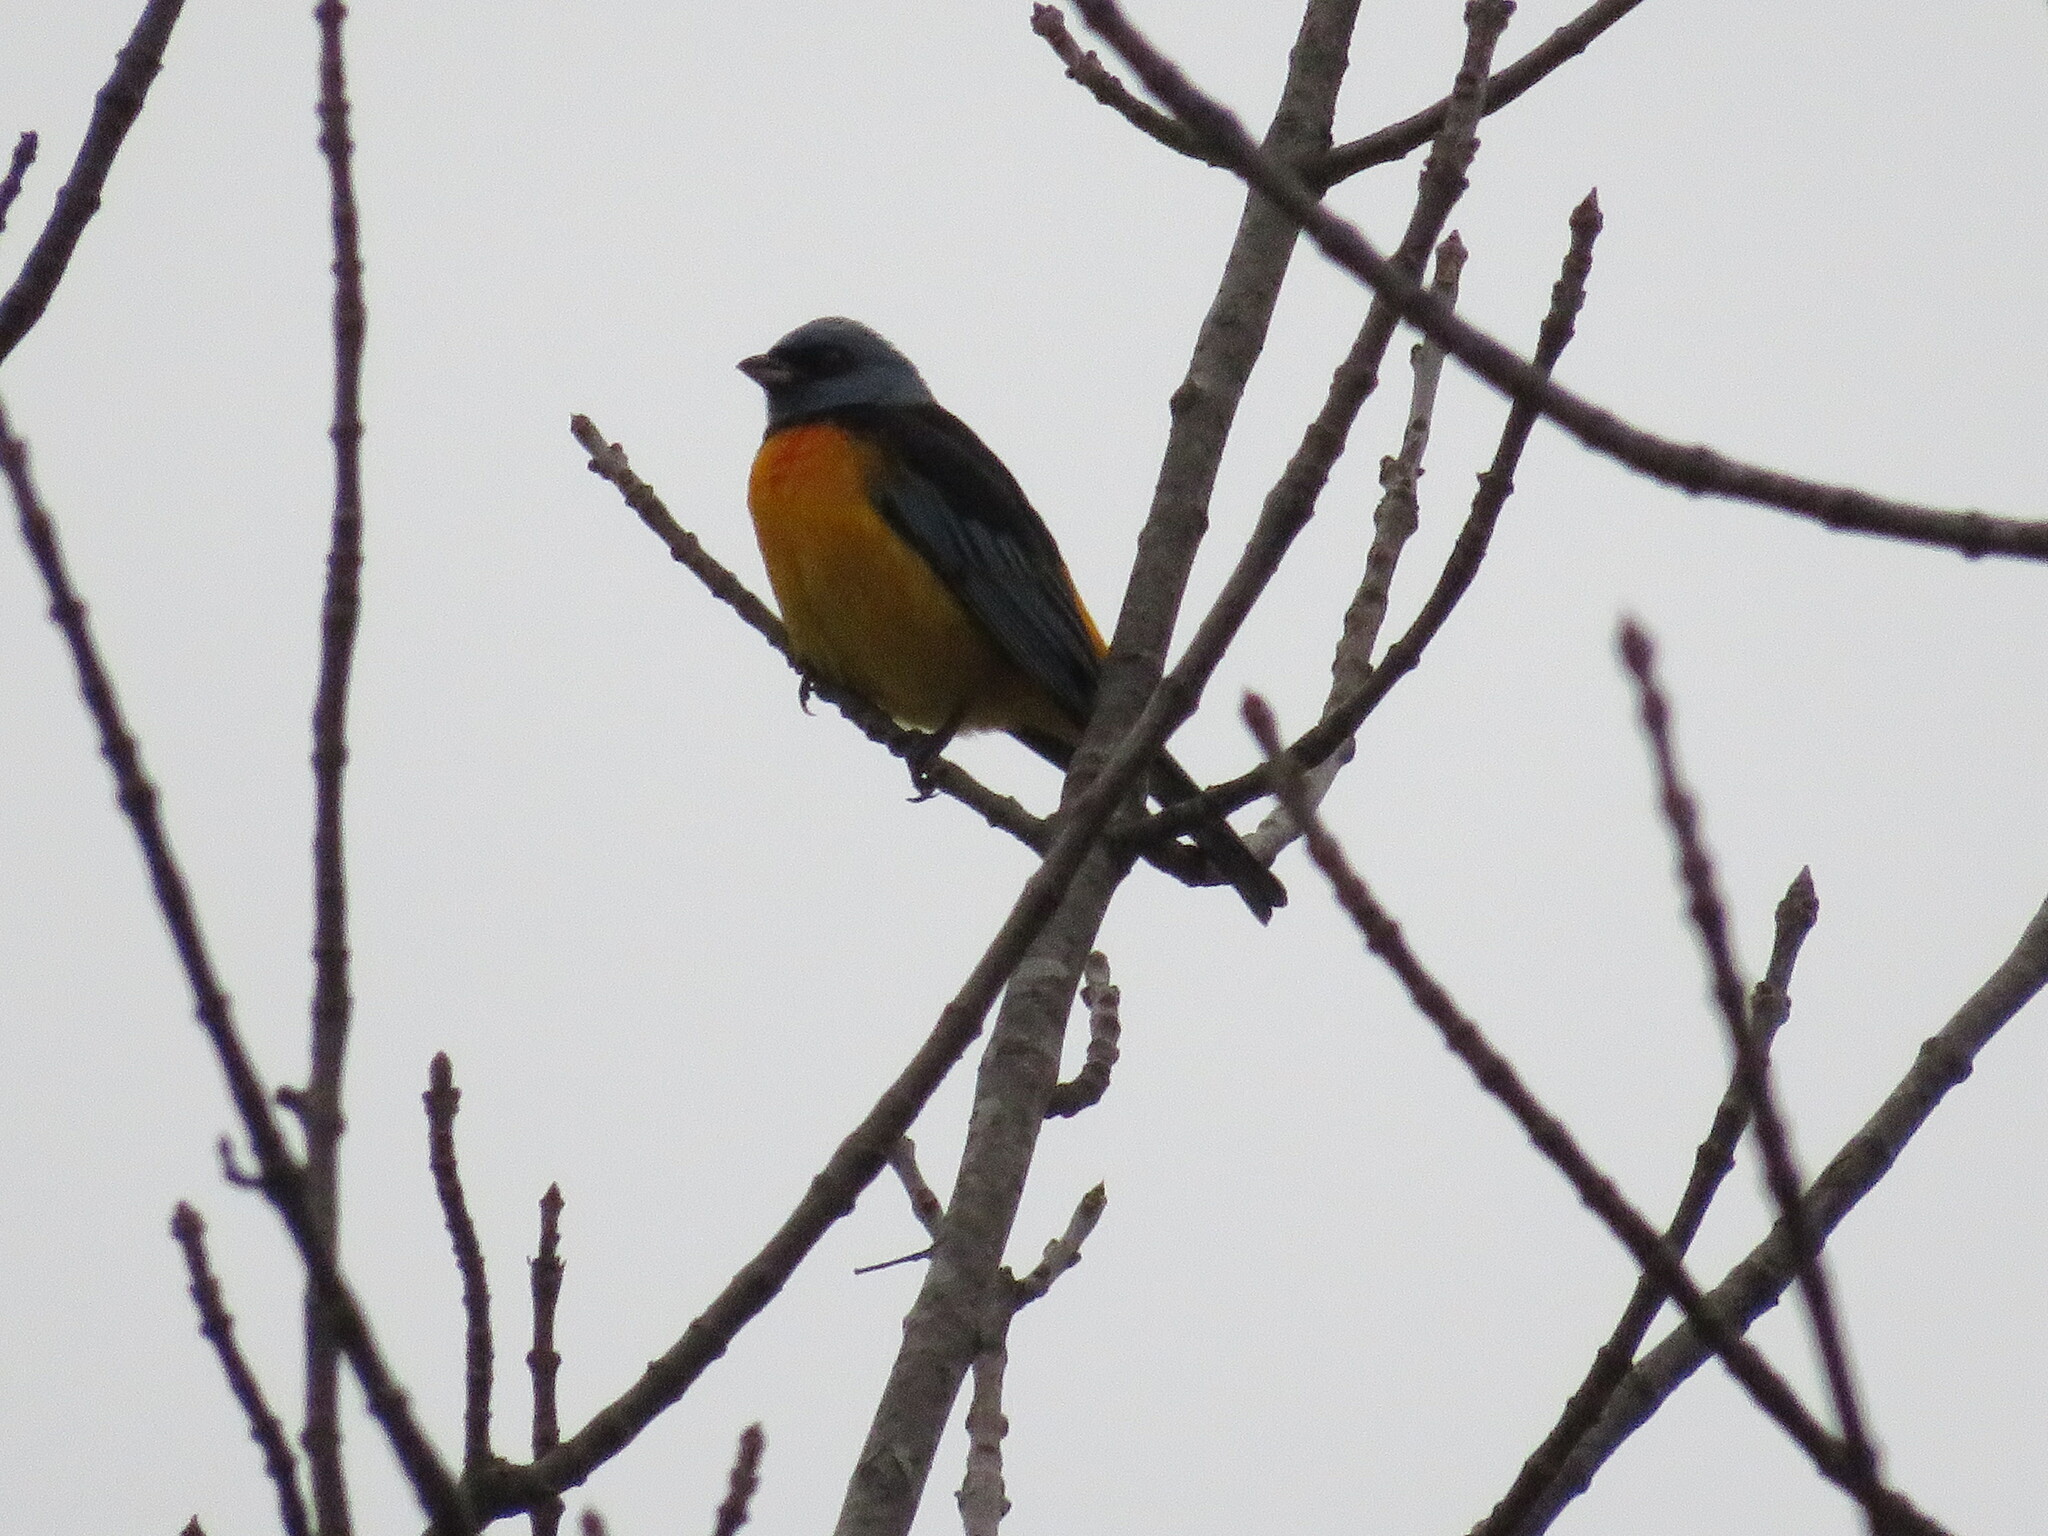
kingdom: Animalia
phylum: Chordata
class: Aves
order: Passeriformes
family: Thraupidae
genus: Rauenia
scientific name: Rauenia bonariensis
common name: Blue-and-yellow tanager
